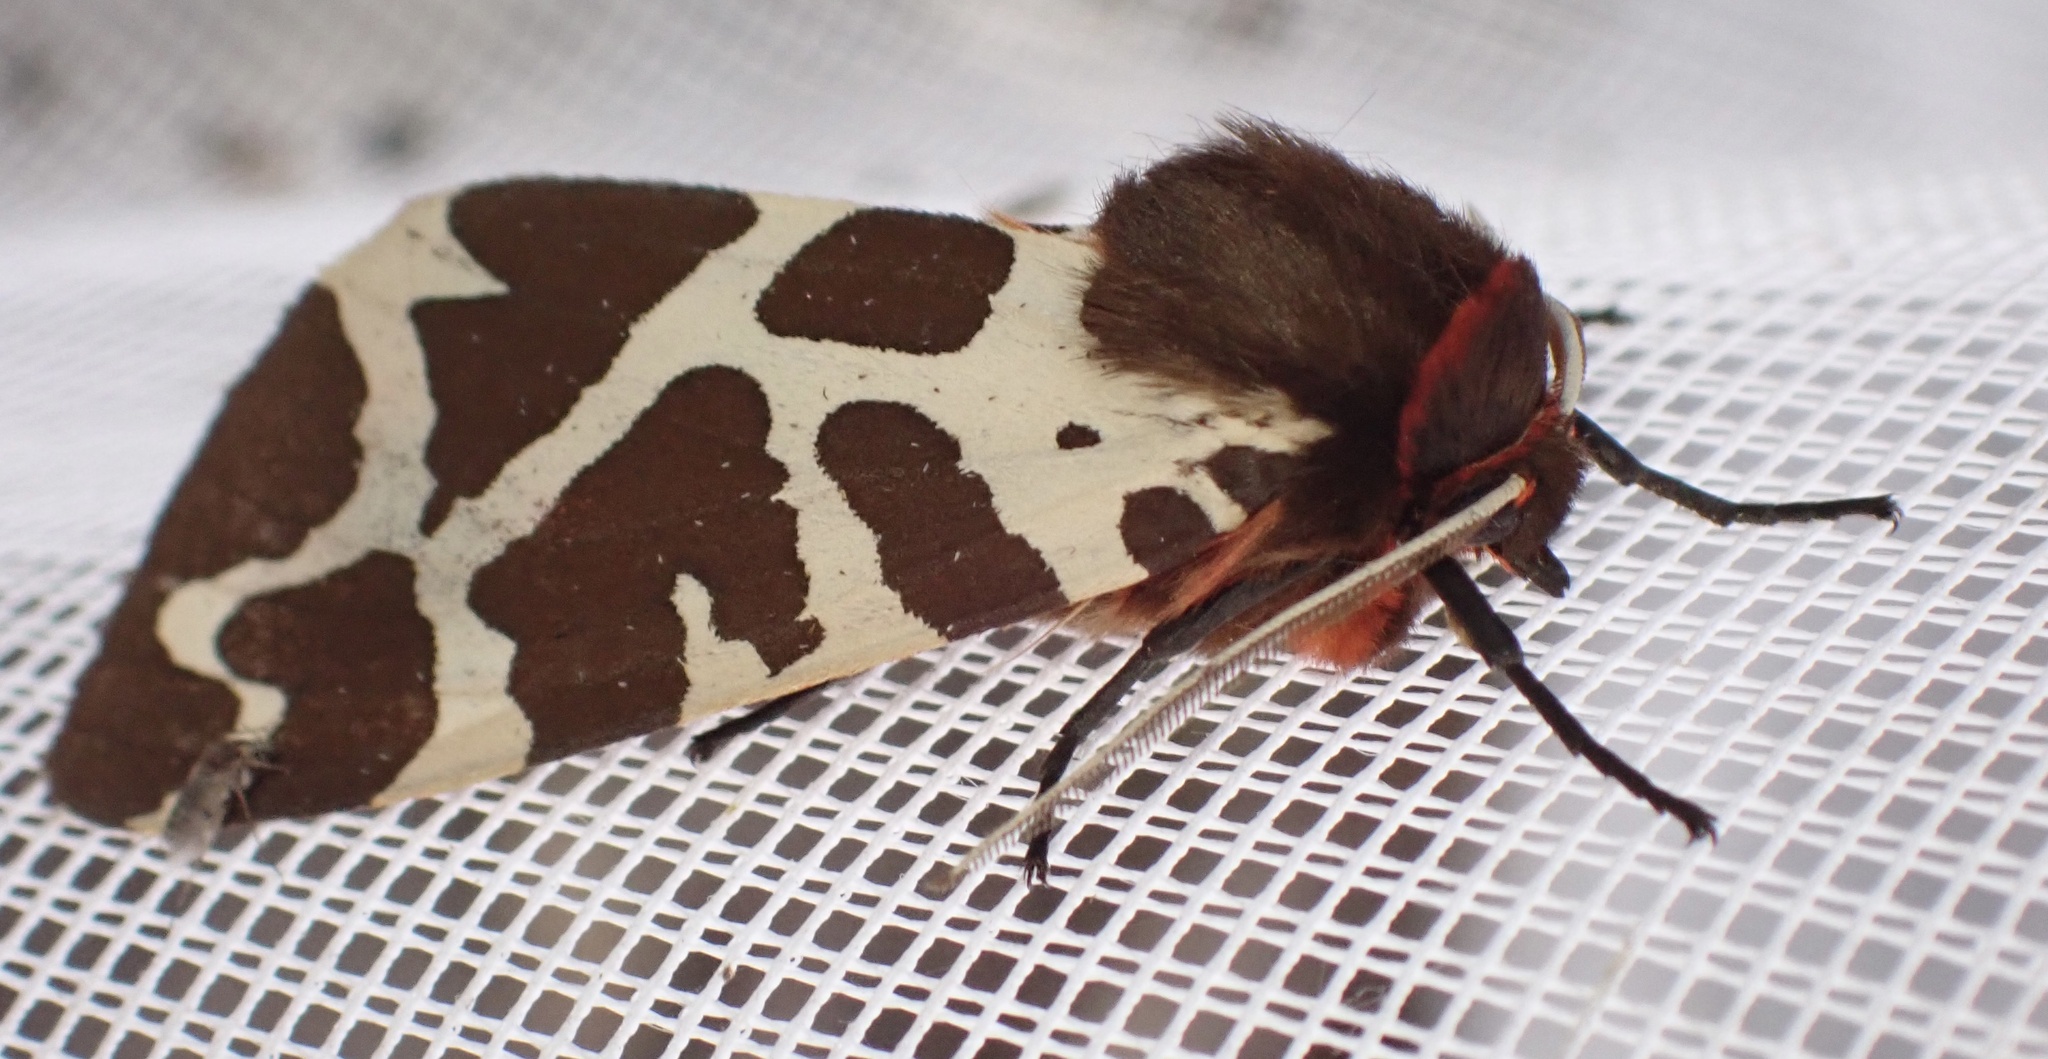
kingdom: Animalia
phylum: Arthropoda
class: Insecta
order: Lepidoptera
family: Erebidae
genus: Arctia
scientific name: Arctia caja
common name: Garden tiger
